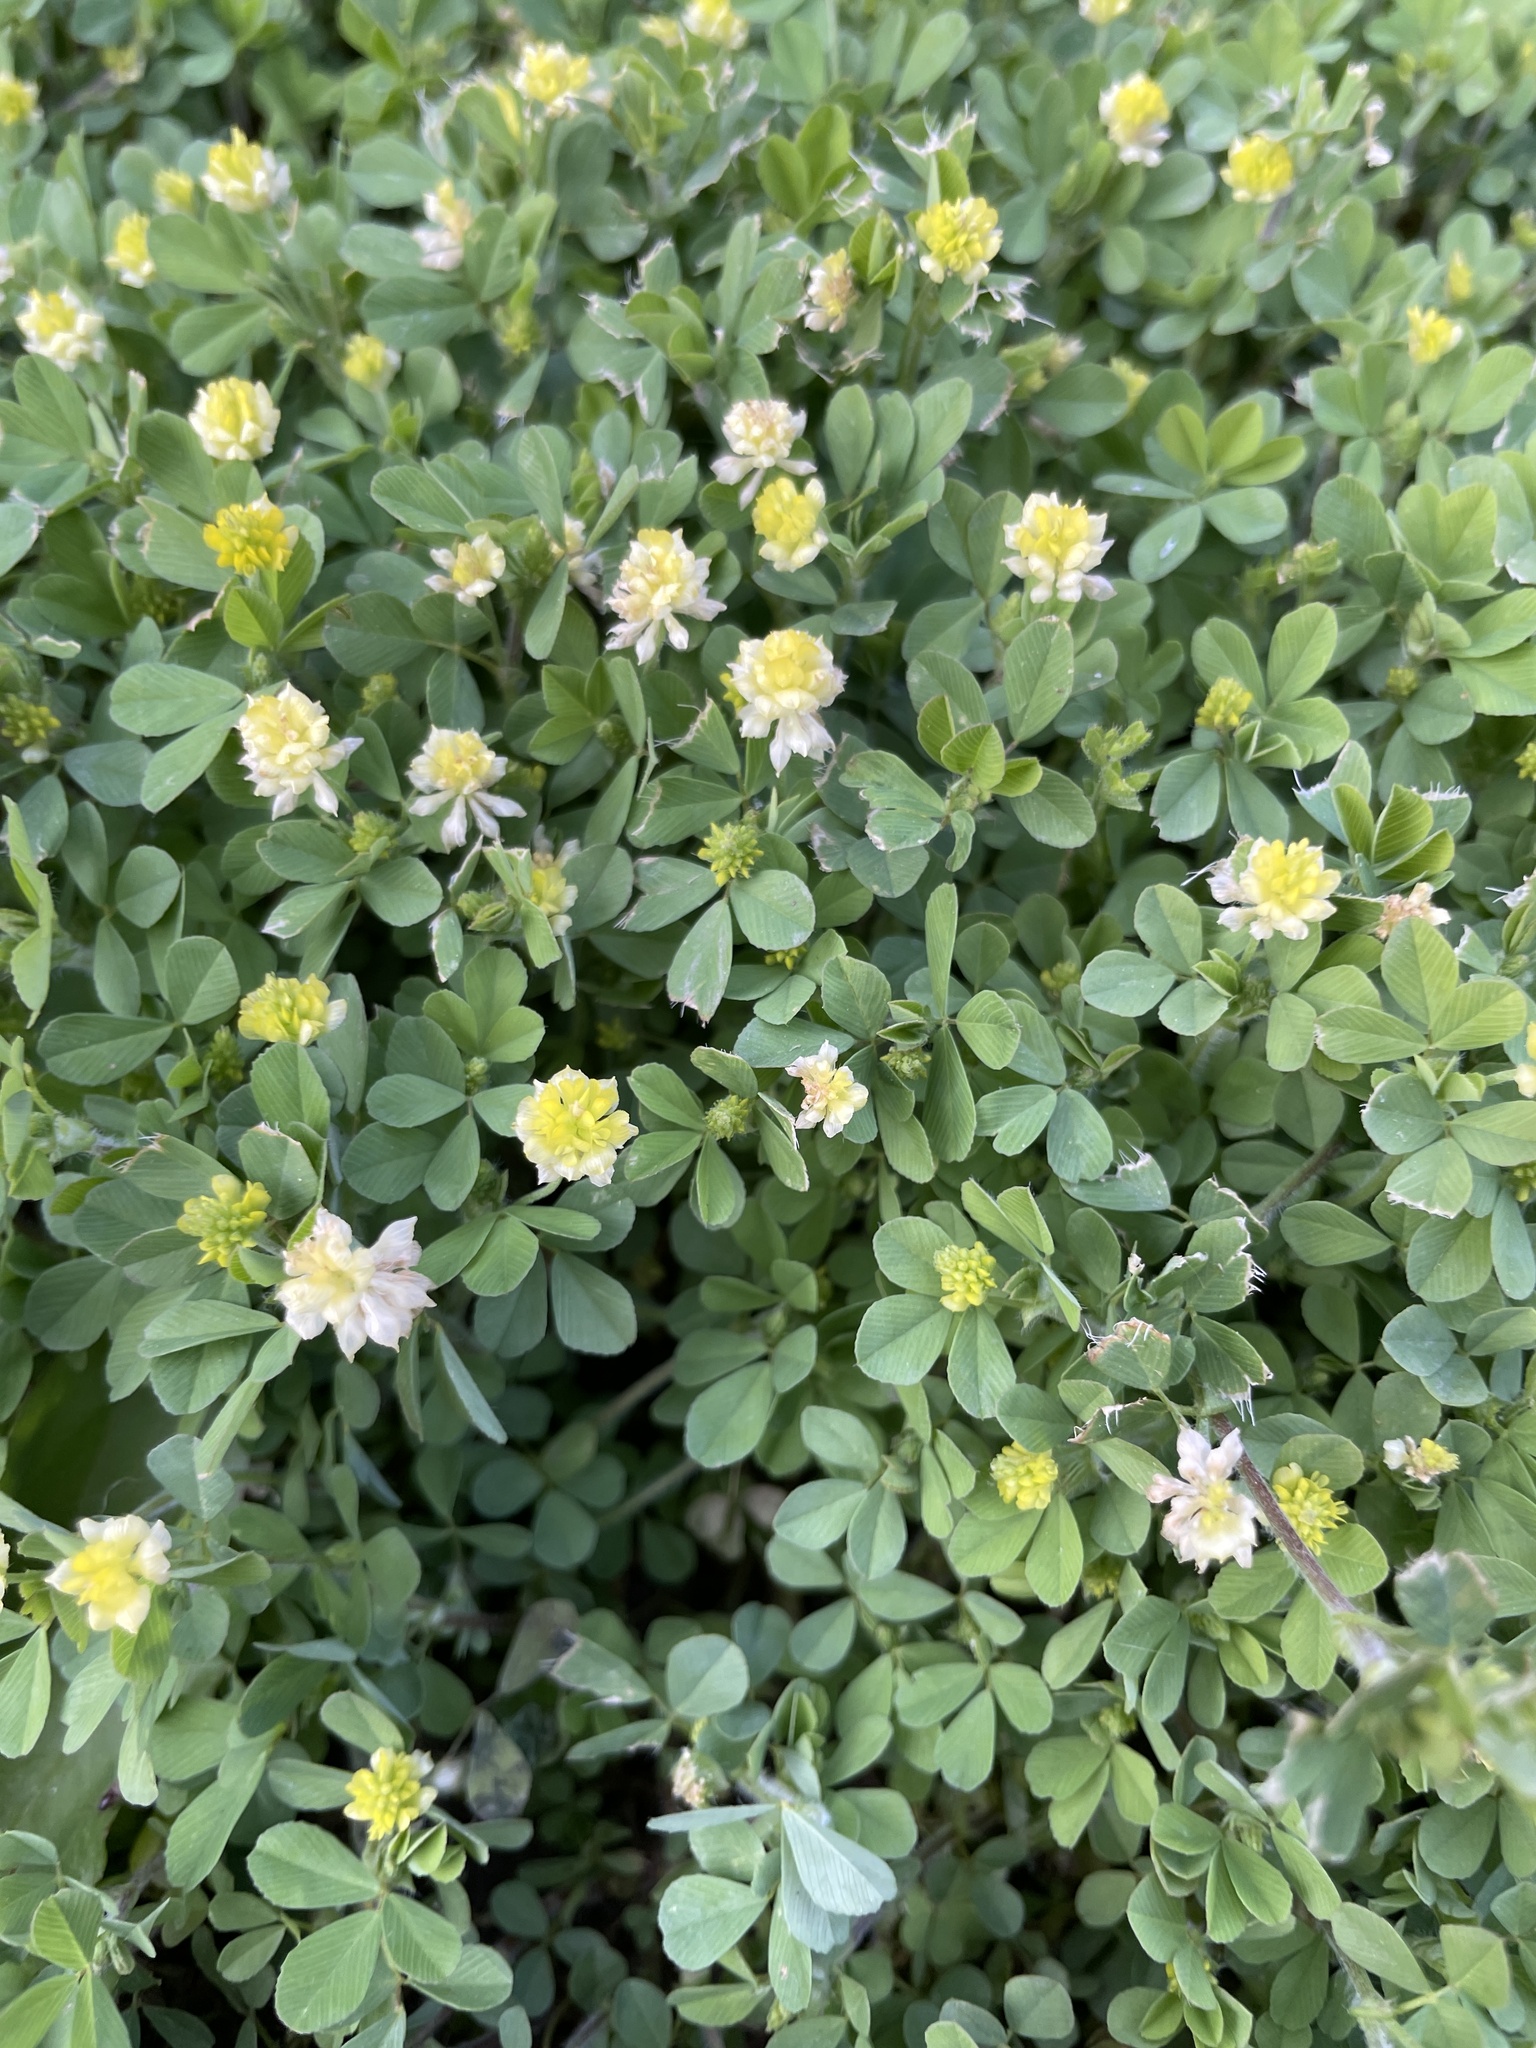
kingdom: Plantae
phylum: Tracheophyta
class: Magnoliopsida
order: Fabales
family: Fabaceae
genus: Trifolium
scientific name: Trifolium campestre
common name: Field clover
